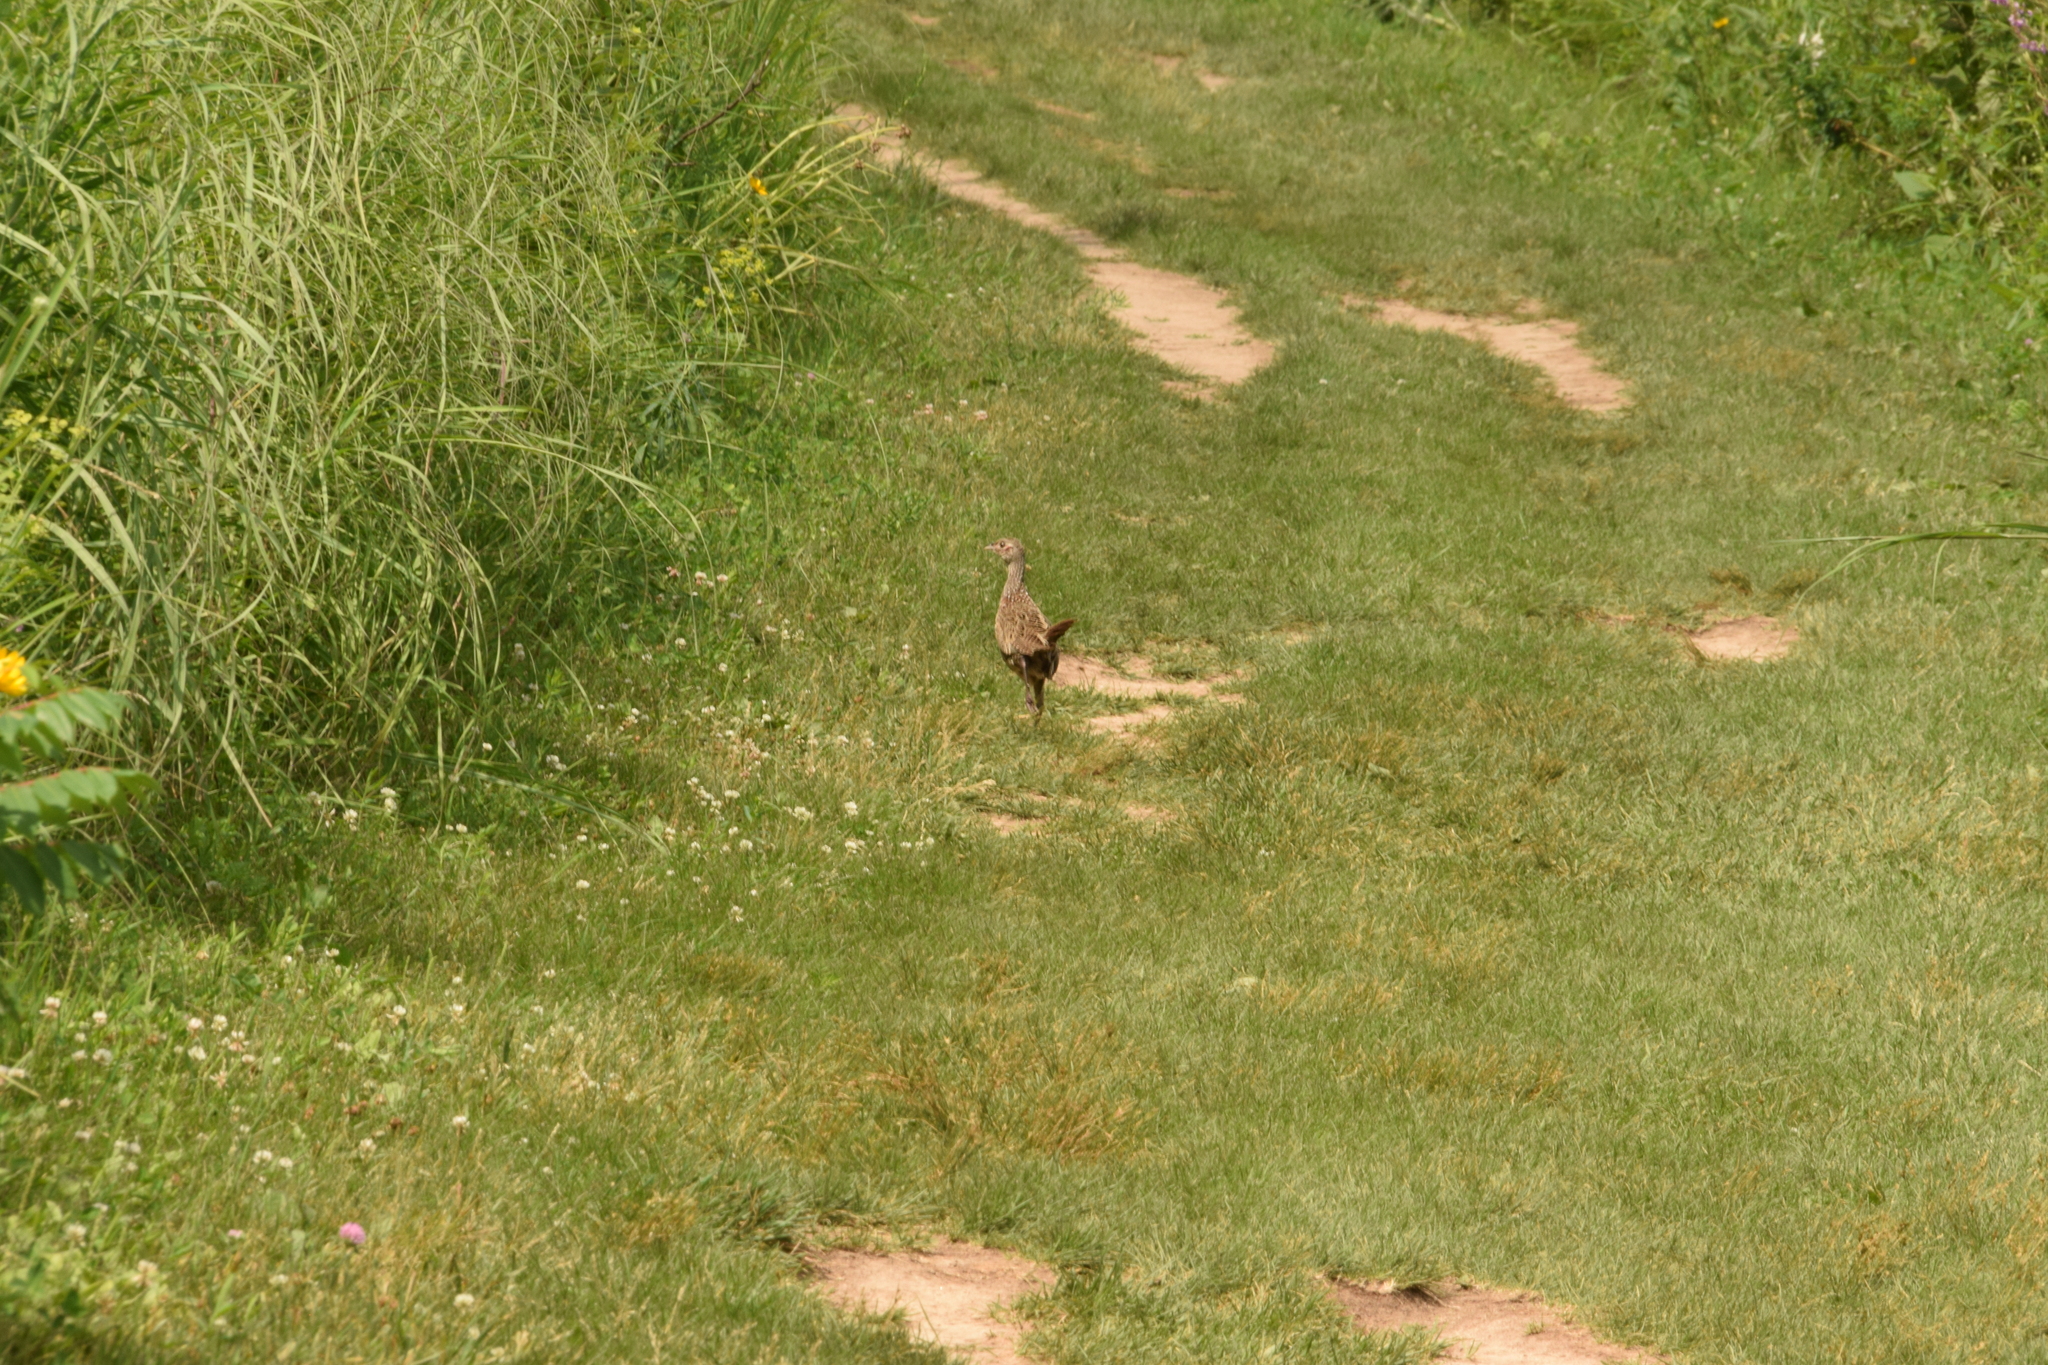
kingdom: Animalia
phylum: Chordata
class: Aves
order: Galliformes
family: Phasianidae
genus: Phasianus
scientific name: Phasianus colchicus
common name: Common pheasant
